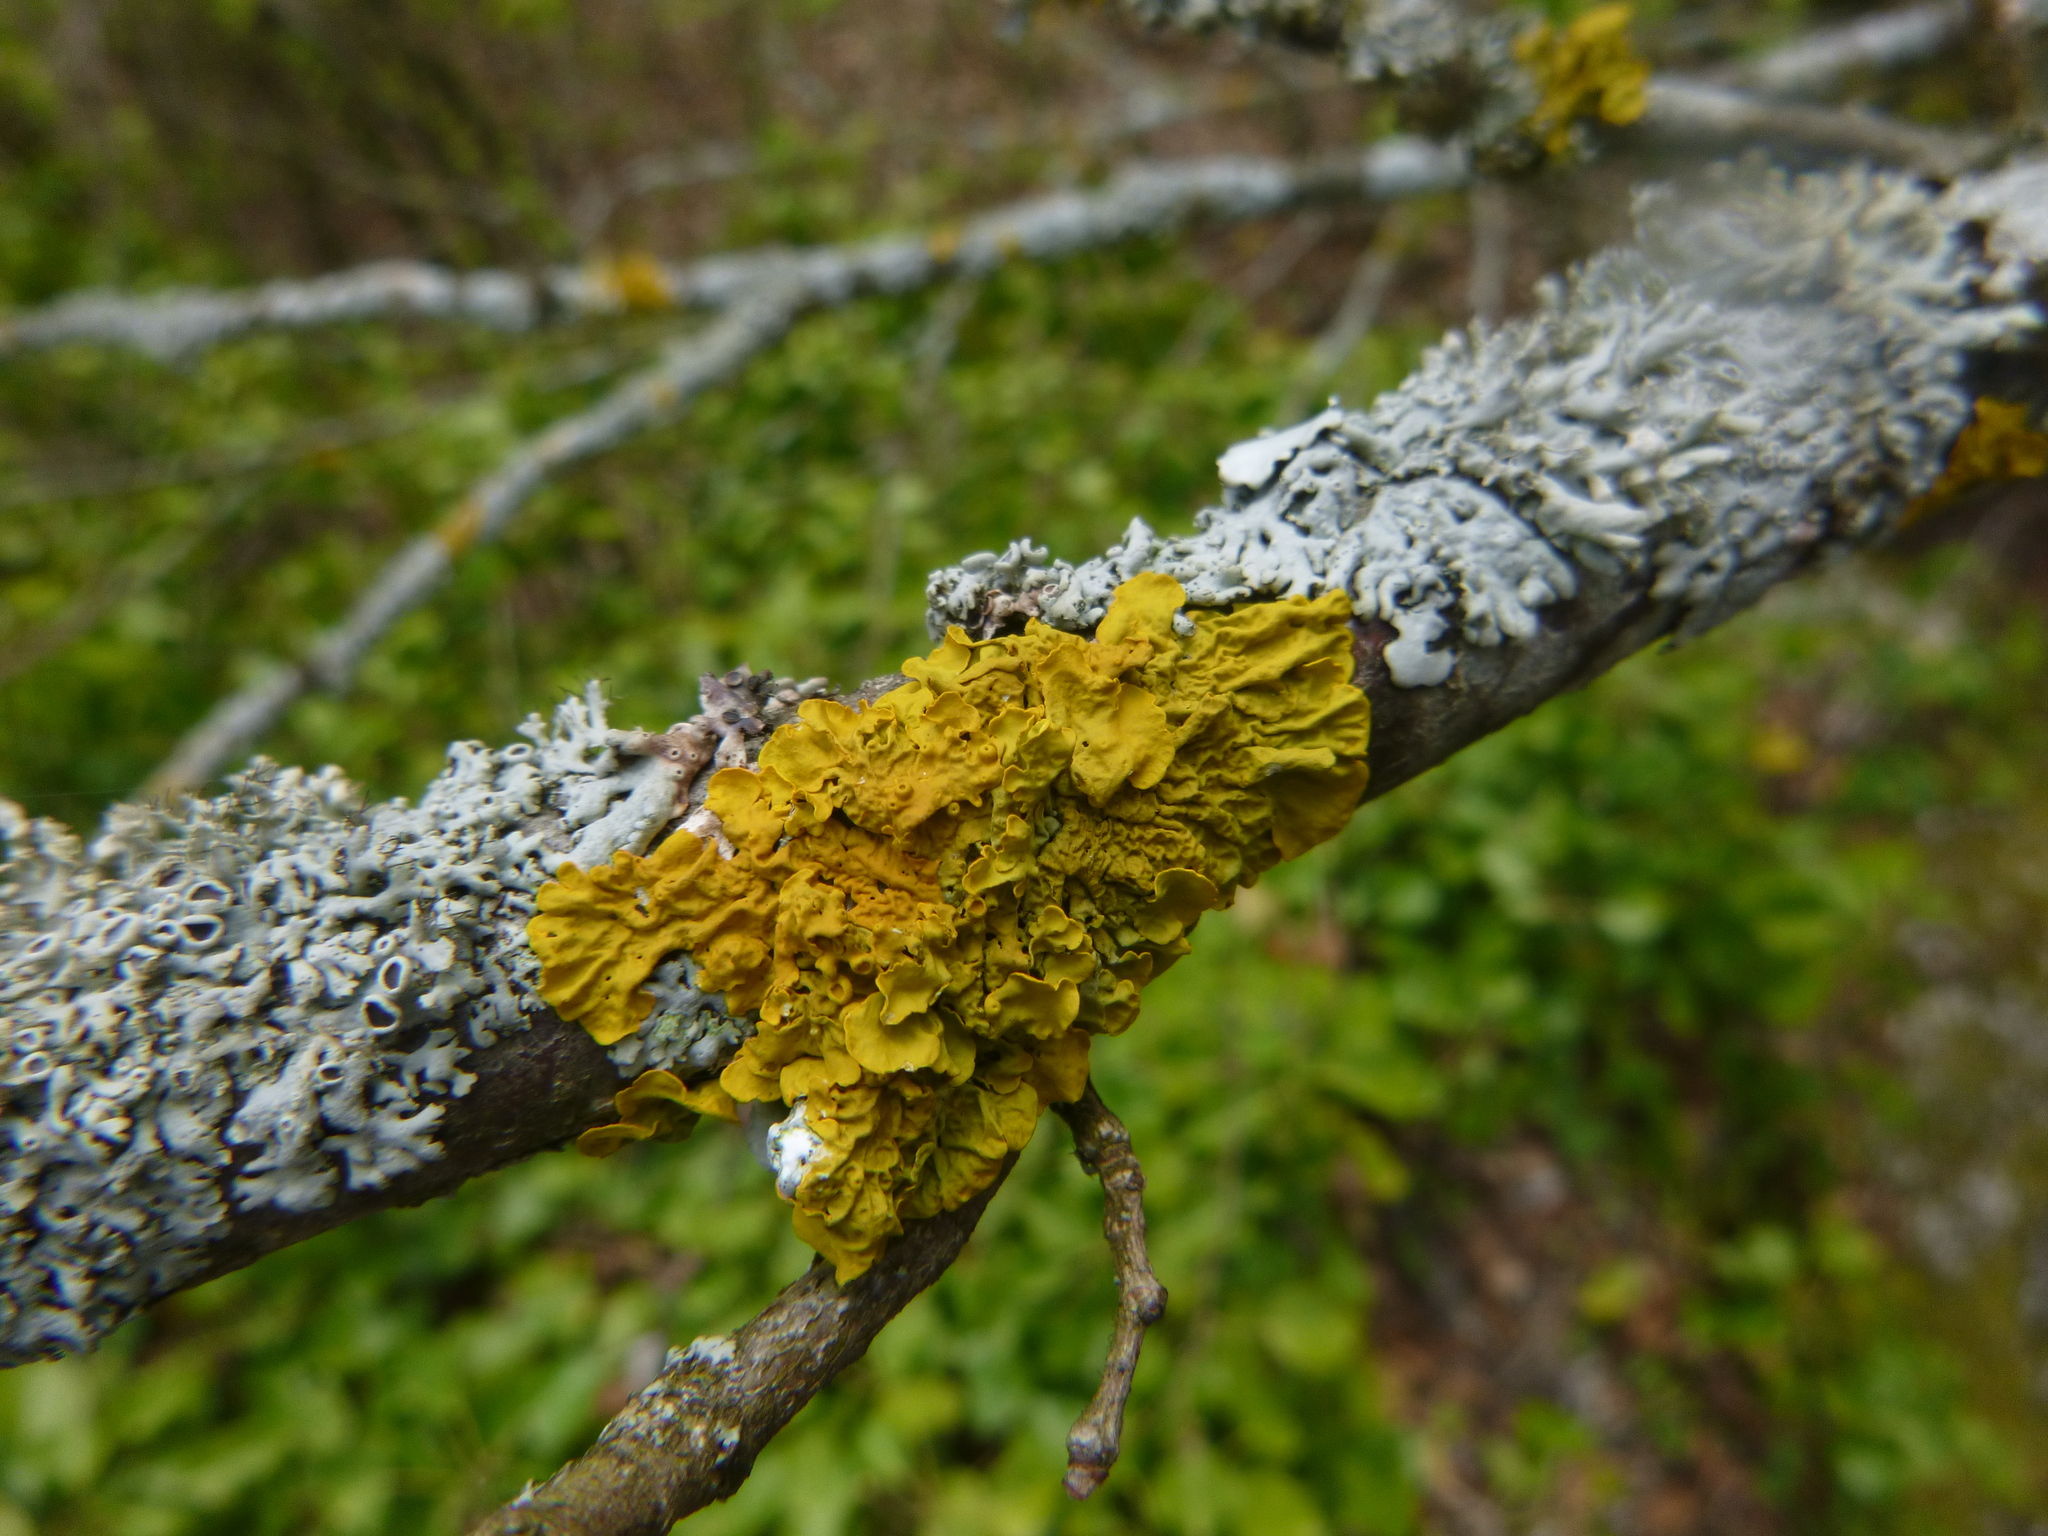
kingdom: Fungi
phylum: Ascomycota
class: Lecanoromycetes
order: Teloschistales
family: Teloschistaceae
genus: Xanthoria
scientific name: Xanthoria parietina
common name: Common orange lichen
